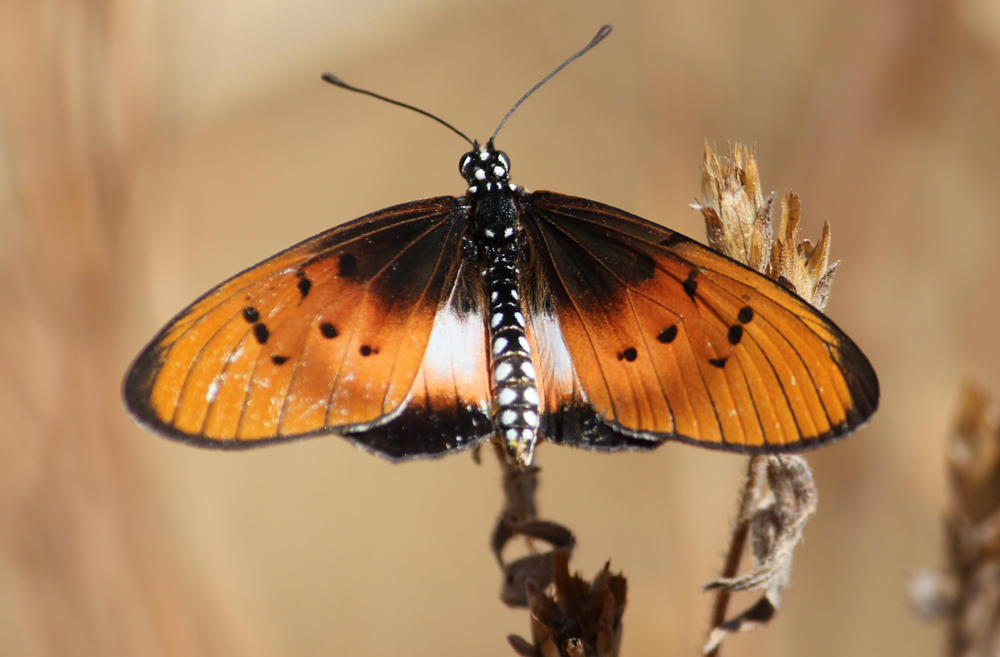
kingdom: Animalia
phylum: Arthropoda
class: Insecta
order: Lepidoptera
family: Nymphalidae
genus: Stephenia
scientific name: Stephenia
